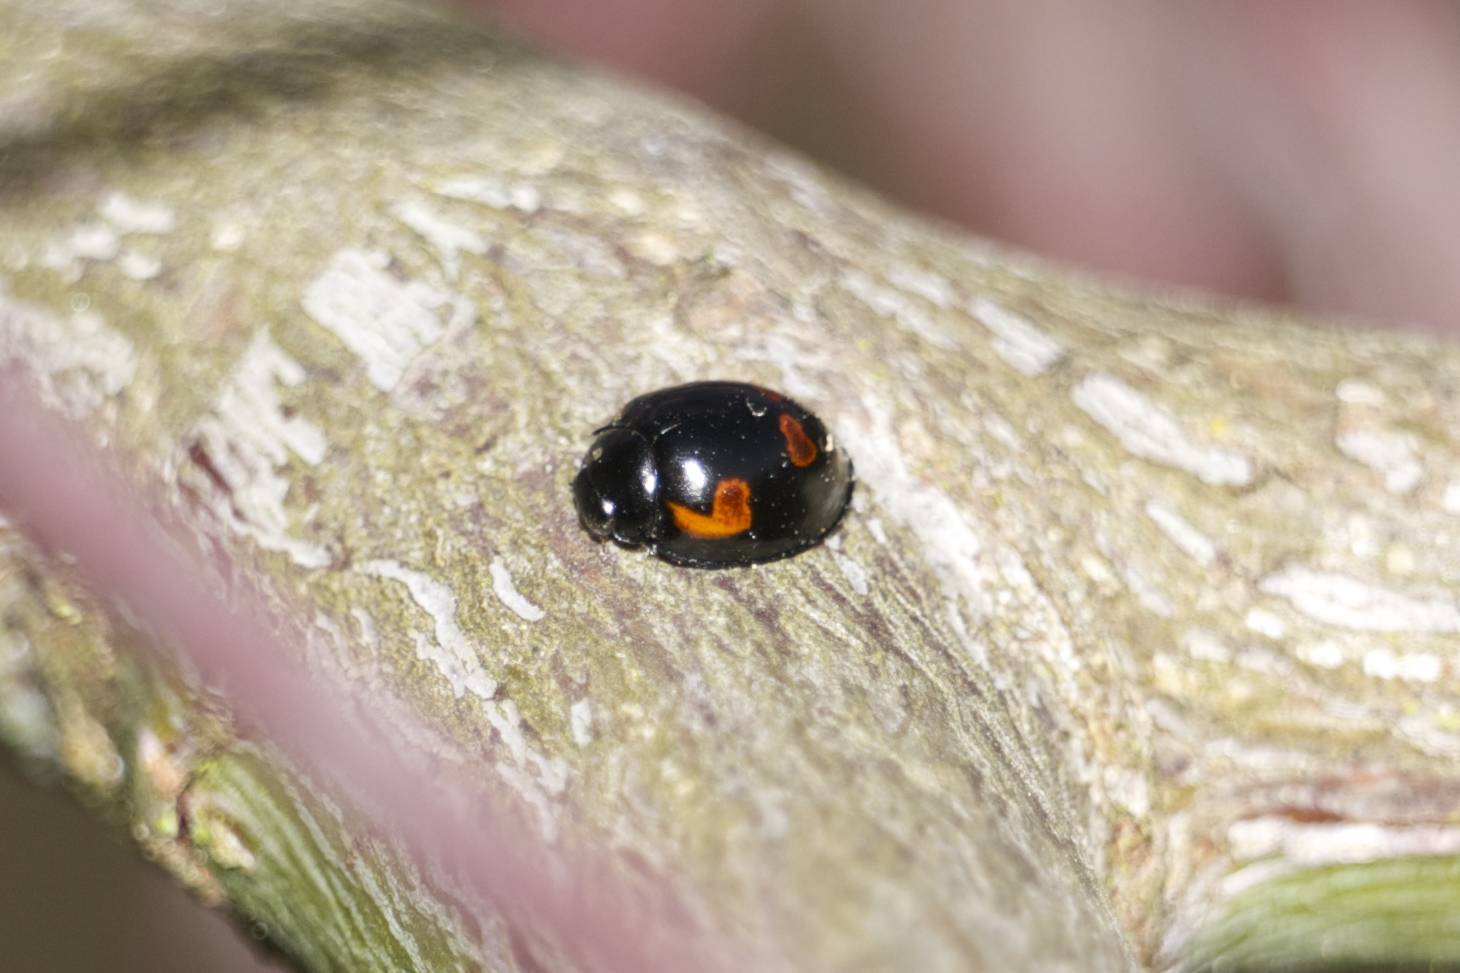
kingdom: Animalia
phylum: Arthropoda
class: Insecta
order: Coleoptera
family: Coccinellidae
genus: Brumus
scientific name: Brumus quadripustulatus
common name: Ladybird beetle
